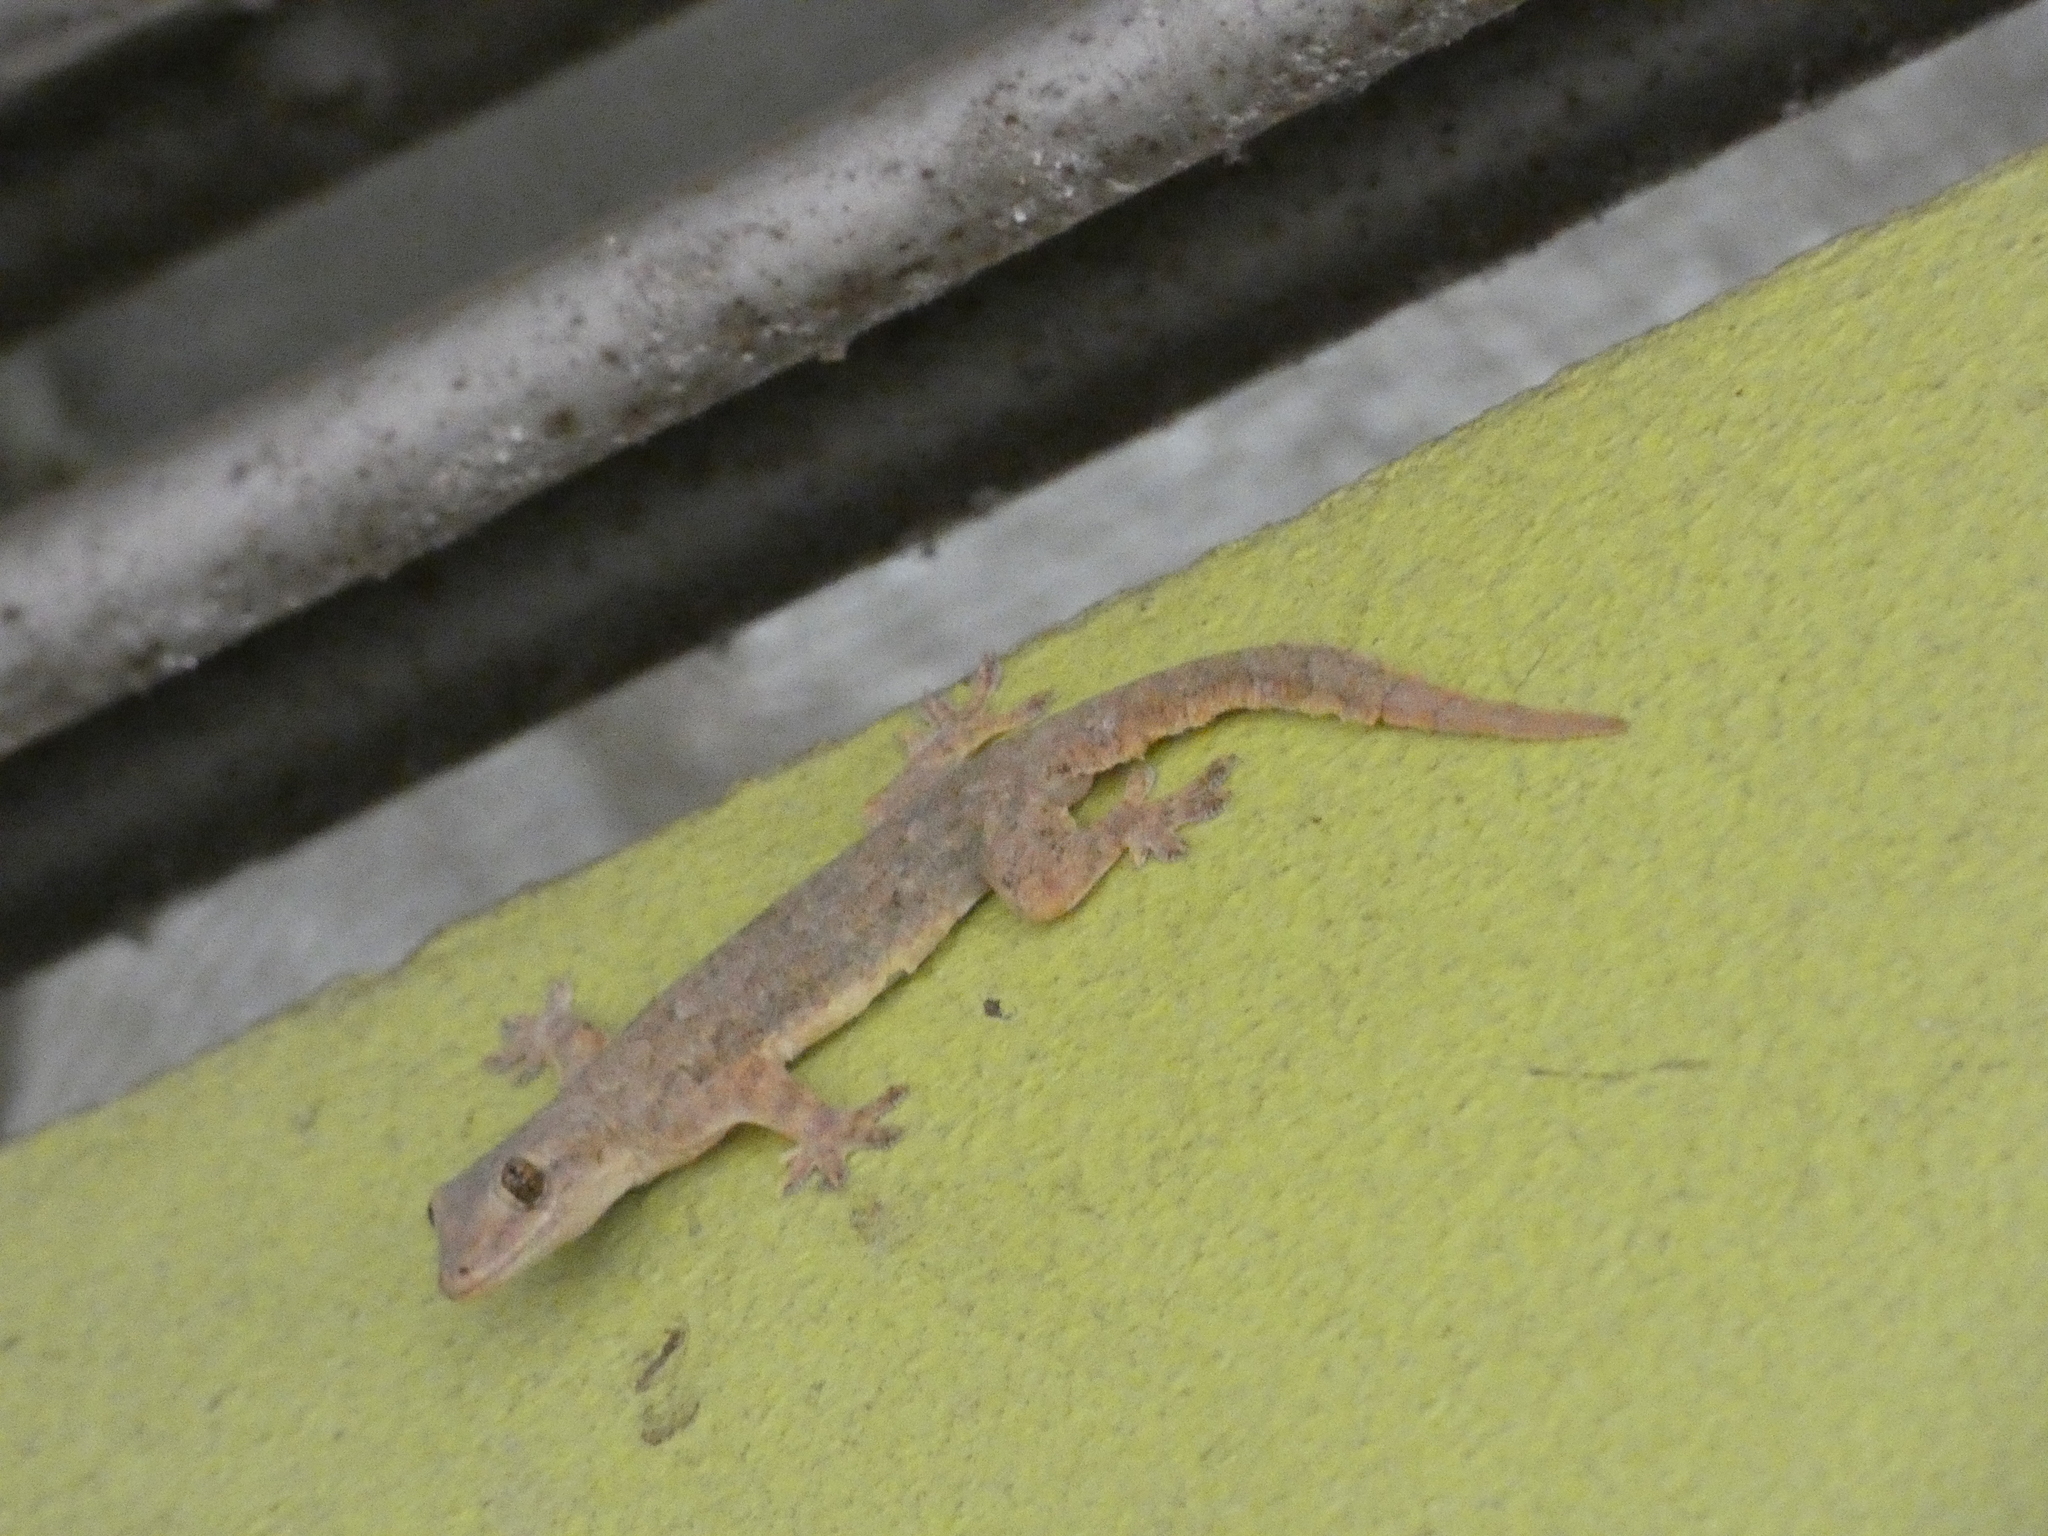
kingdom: Animalia
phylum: Chordata
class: Squamata
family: Gekkonidae
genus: Hemidactylus
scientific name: Hemidactylus platyurus
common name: Flat-tailed house gecko
